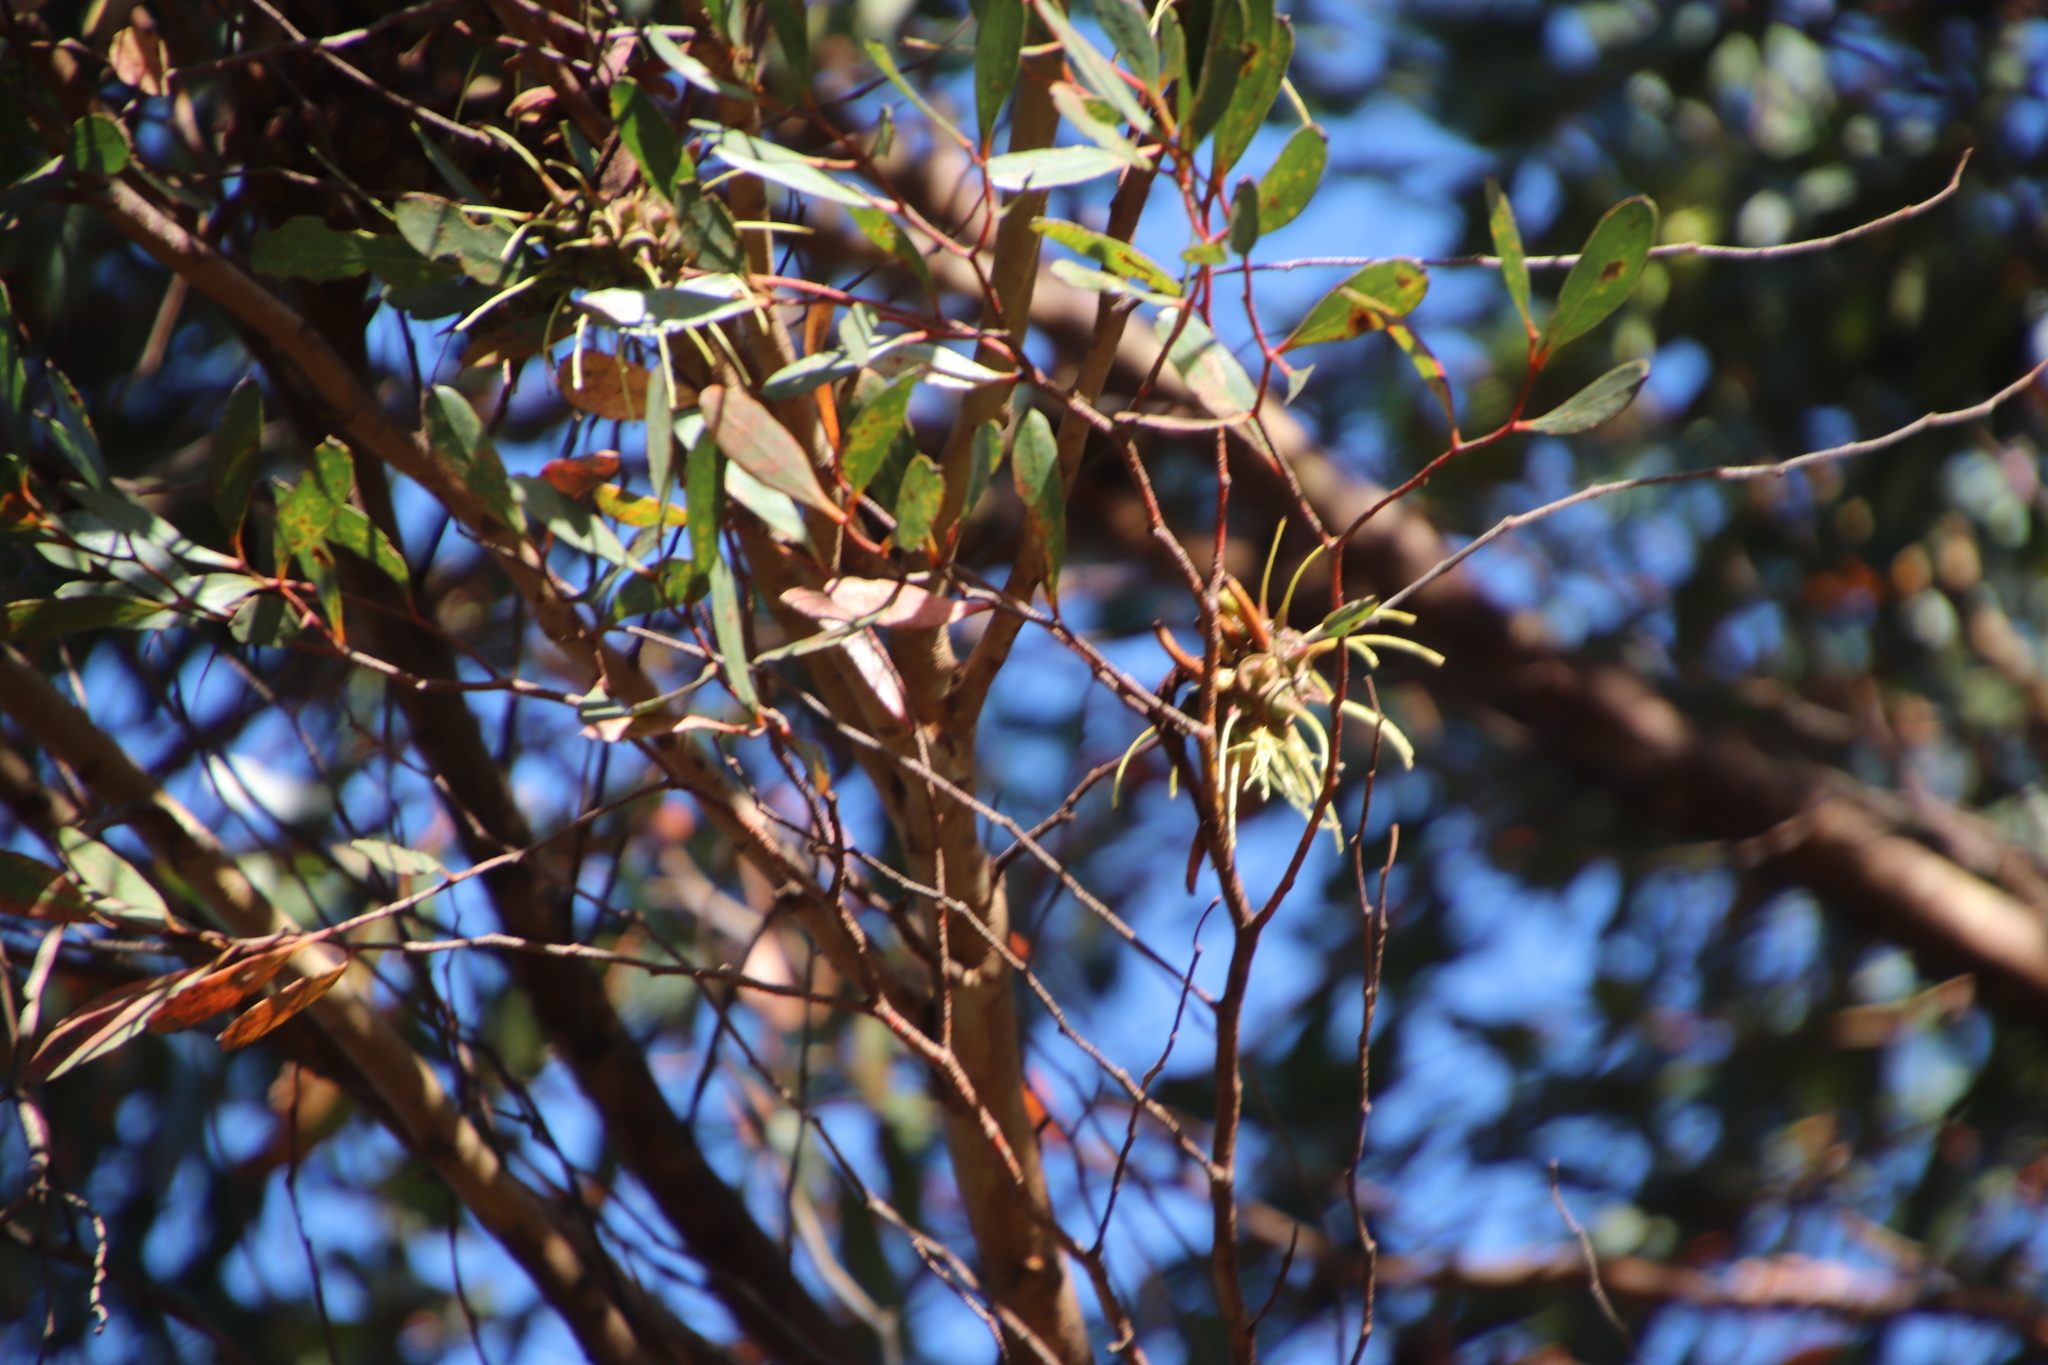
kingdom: Plantae
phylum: Tracheophyta
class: Magnoliopsida
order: Myrtales
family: Myrtaceae
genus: Eucalyptus
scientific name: Eucalyptus conferruminata
